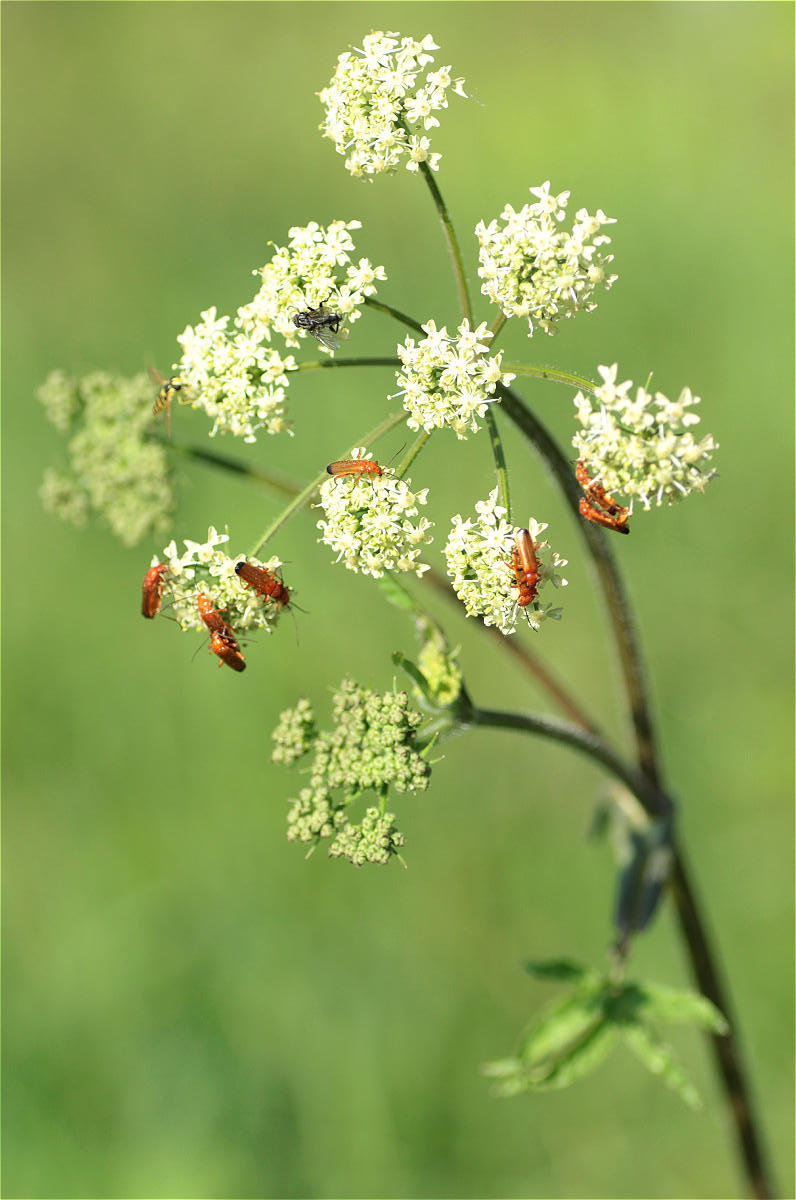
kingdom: Plantae
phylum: Tracheophyta
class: Magnoliopsida
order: Apiales
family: Apiaceae
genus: Heracleum
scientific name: Heracleum sphondylium
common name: Hogweed
